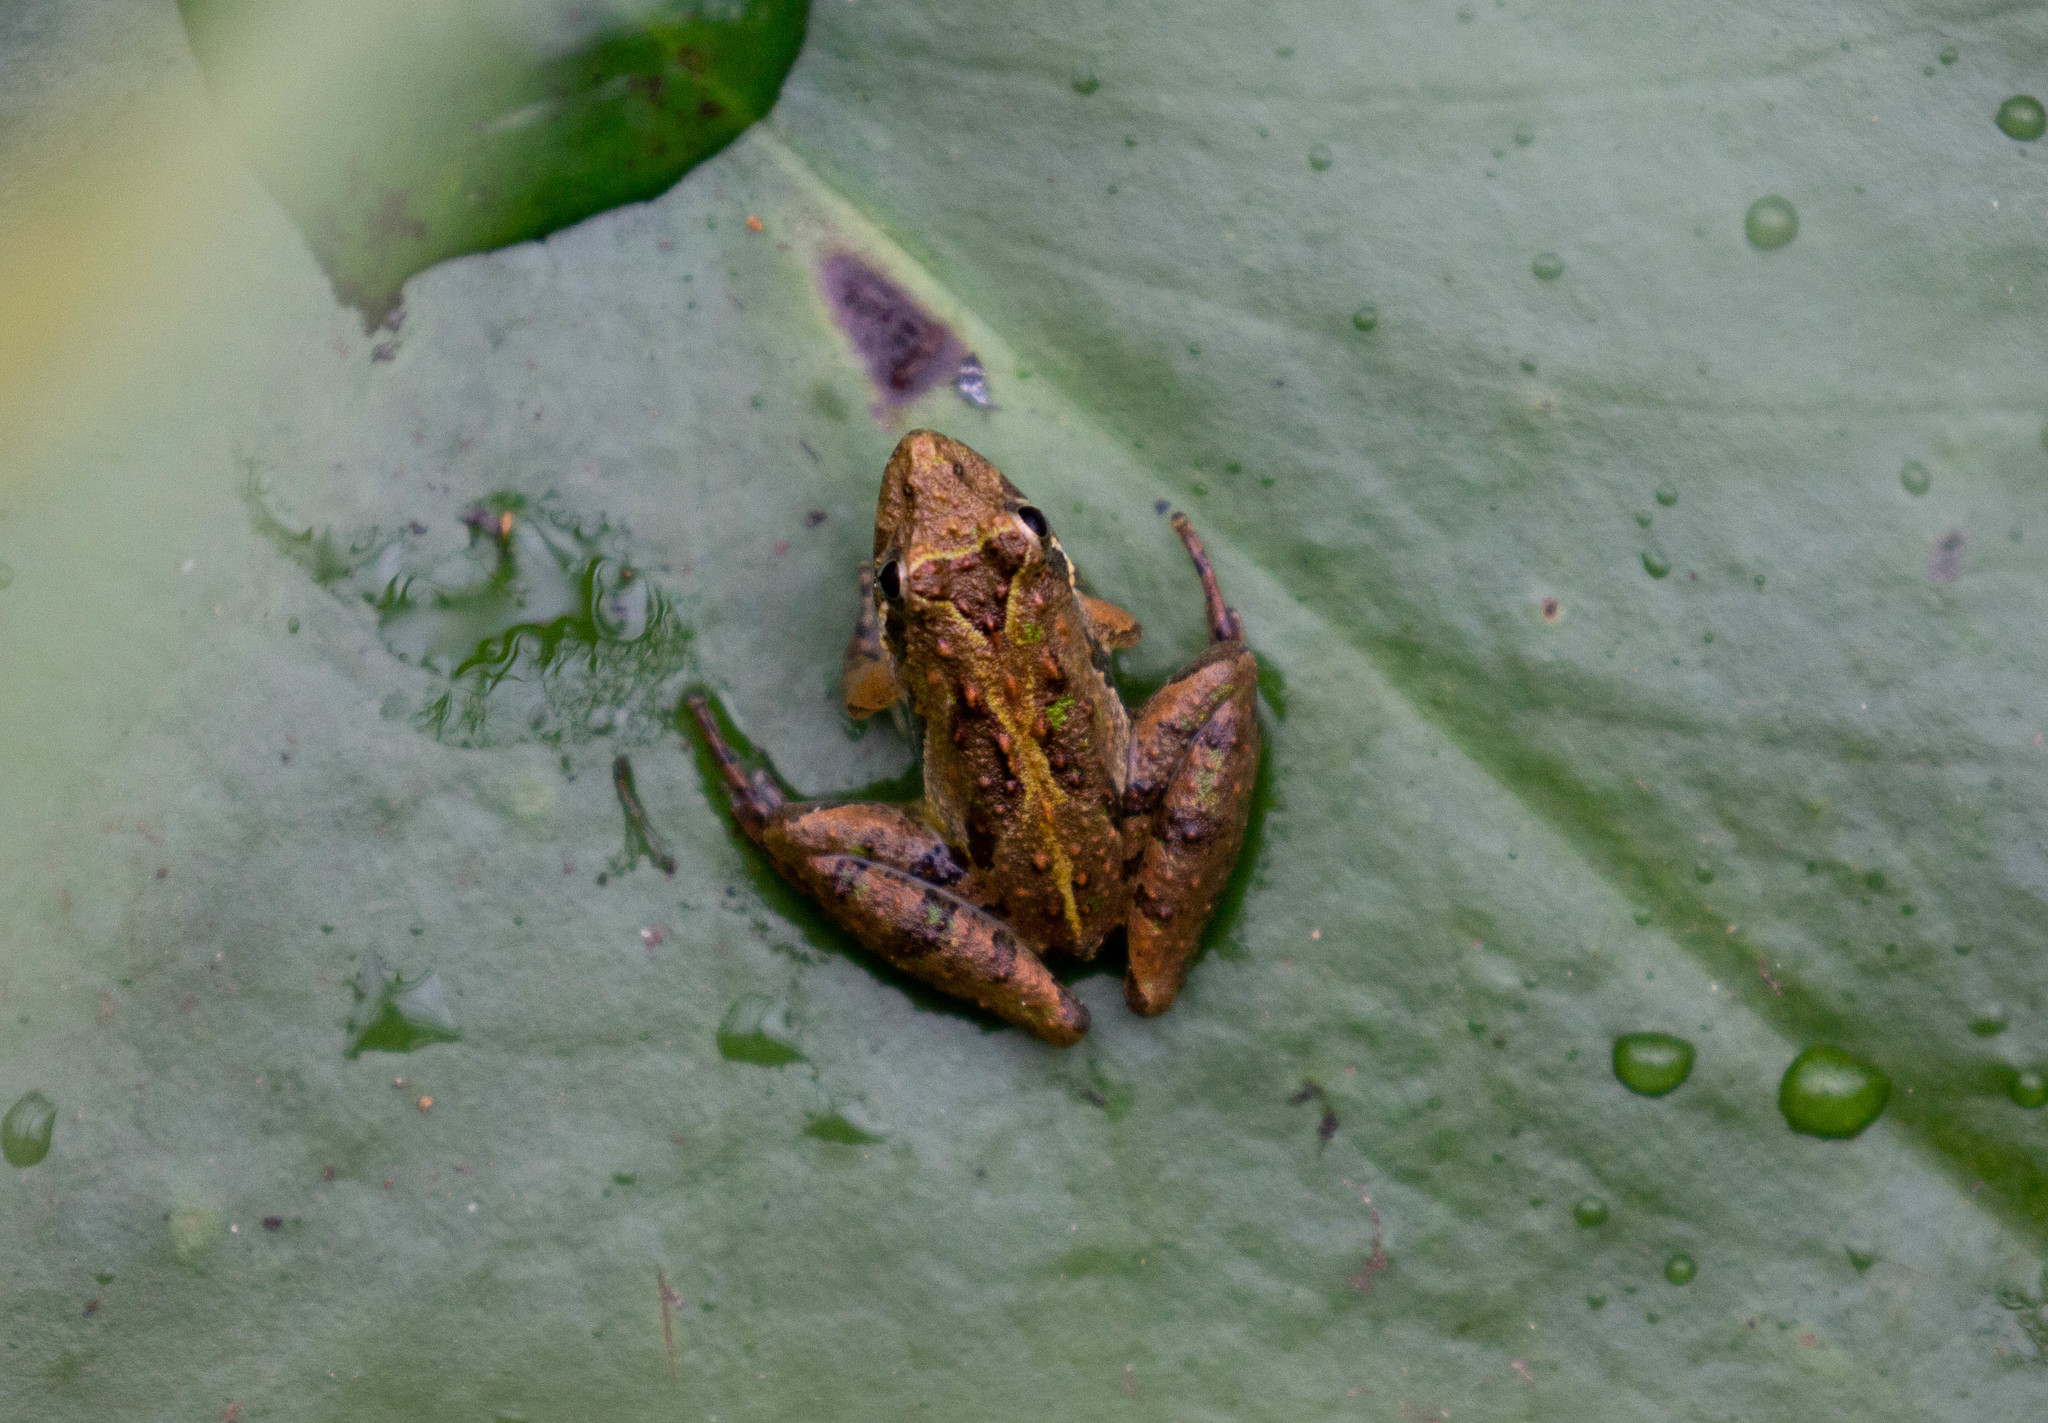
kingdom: Animalia
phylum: Chordata
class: Amphibia
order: Anura
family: Hylidae
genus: Acris
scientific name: Acris gryllus
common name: Southern cricket frog
